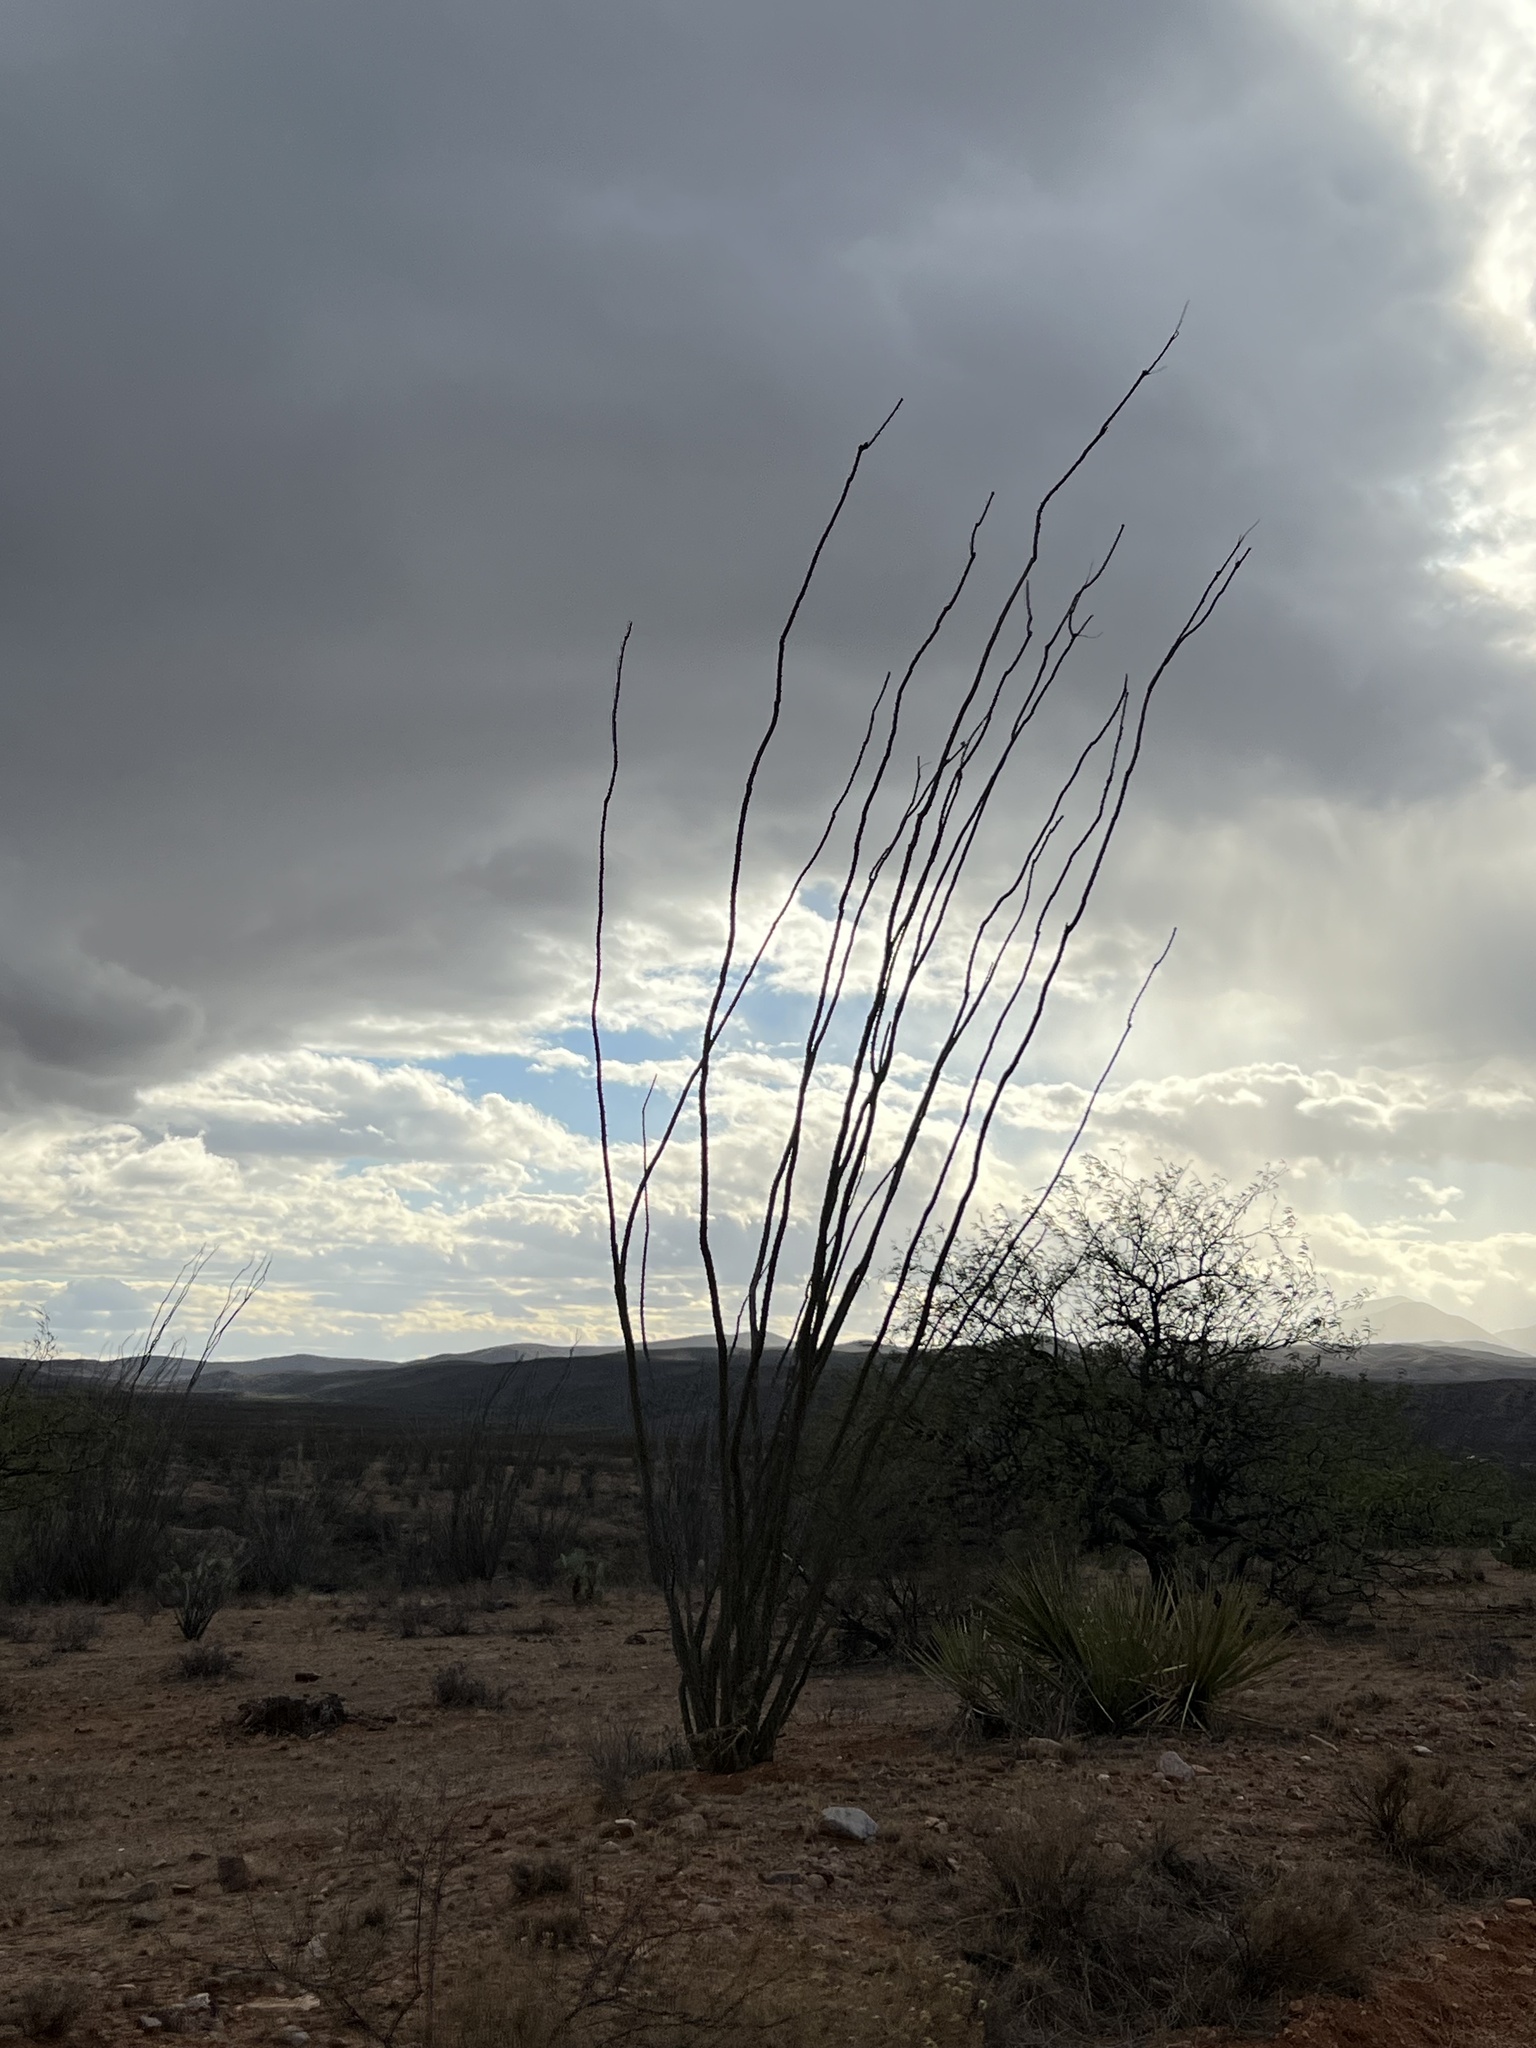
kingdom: Plantae
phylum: Tracheophyta
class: Magnoliopsida
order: Ericales
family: Fouquieriaceae
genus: Fouquieria
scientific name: Fouquieria splendens
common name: Vine-cactus
